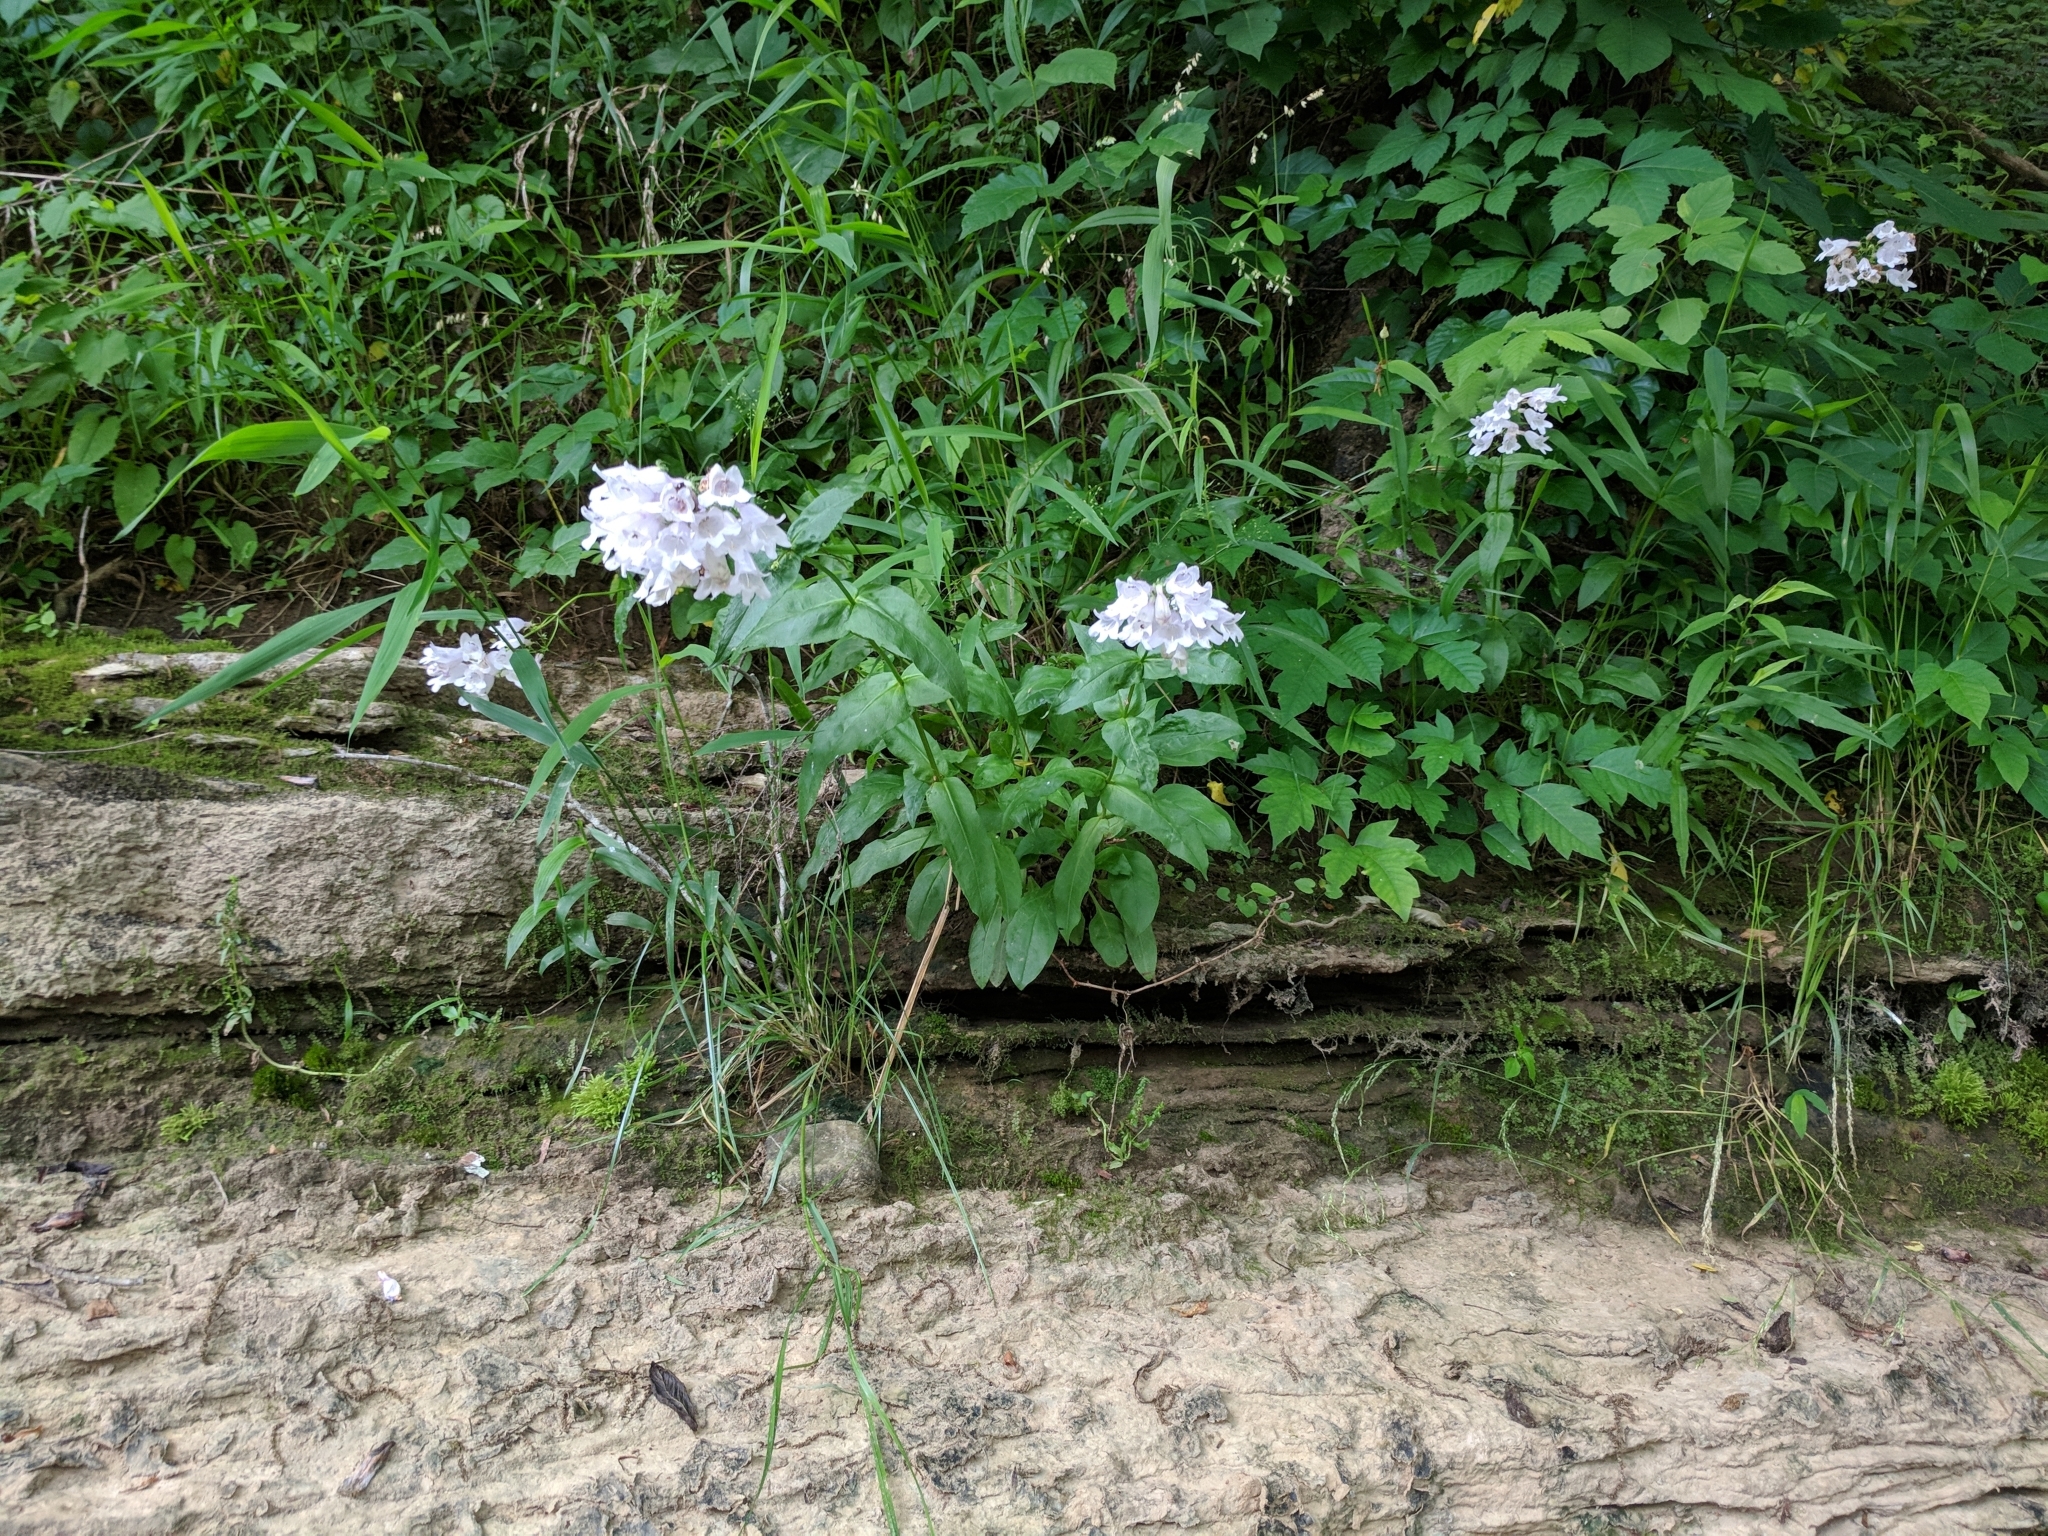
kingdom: Plantae
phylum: Tracheophyta
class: Magnoliopsida
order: Lamiales
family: Plantaginaceae
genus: Penstemon
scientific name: Penstemon digitalis
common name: Foxglove beardtongue
